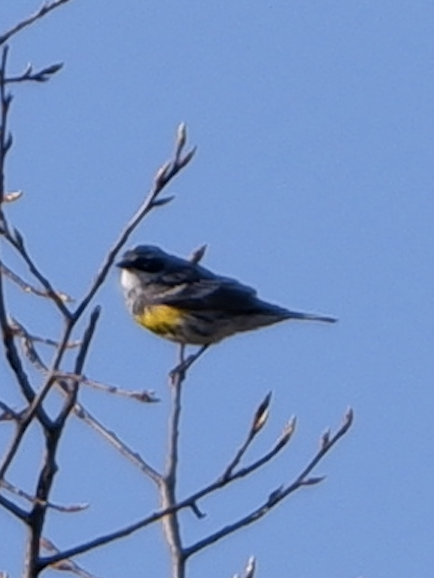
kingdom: Animalia
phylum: Chordata
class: Aves
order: Passeriformes
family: Parulidae
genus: Setophaga
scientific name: Setophaga coronata
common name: Myrtle warbler
